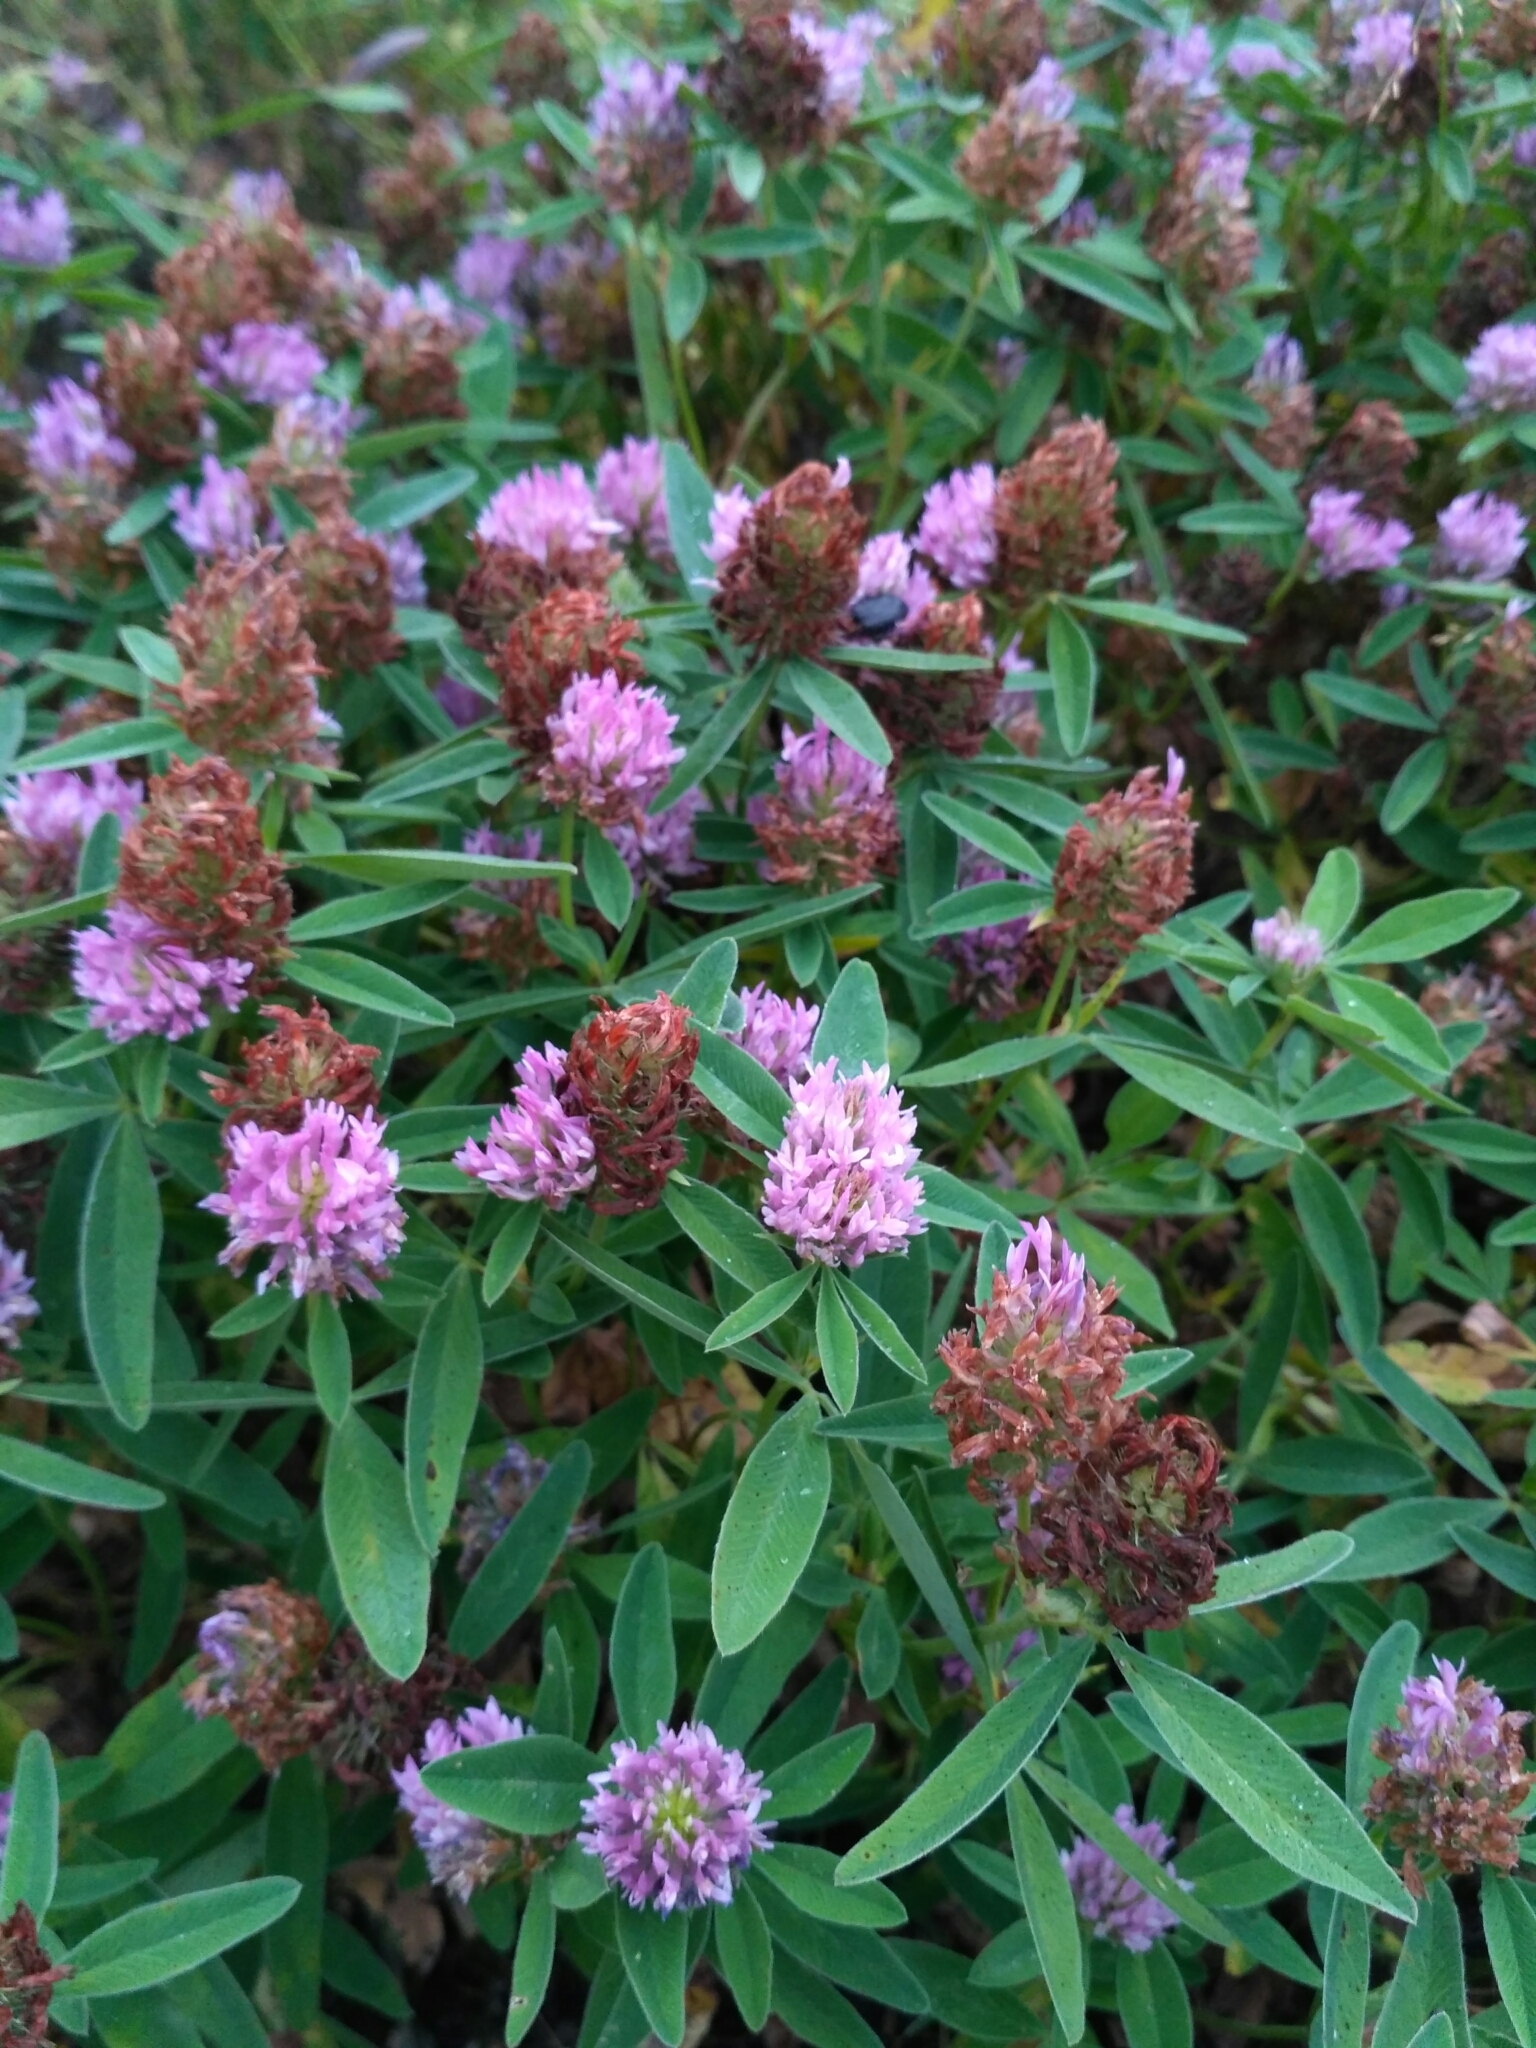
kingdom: Plantae
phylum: Tracheophyta
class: Magnoliopsida
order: Fabales
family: Fabaceae
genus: Trifolium
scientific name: Trifolium alpestre
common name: Owl-head clover
